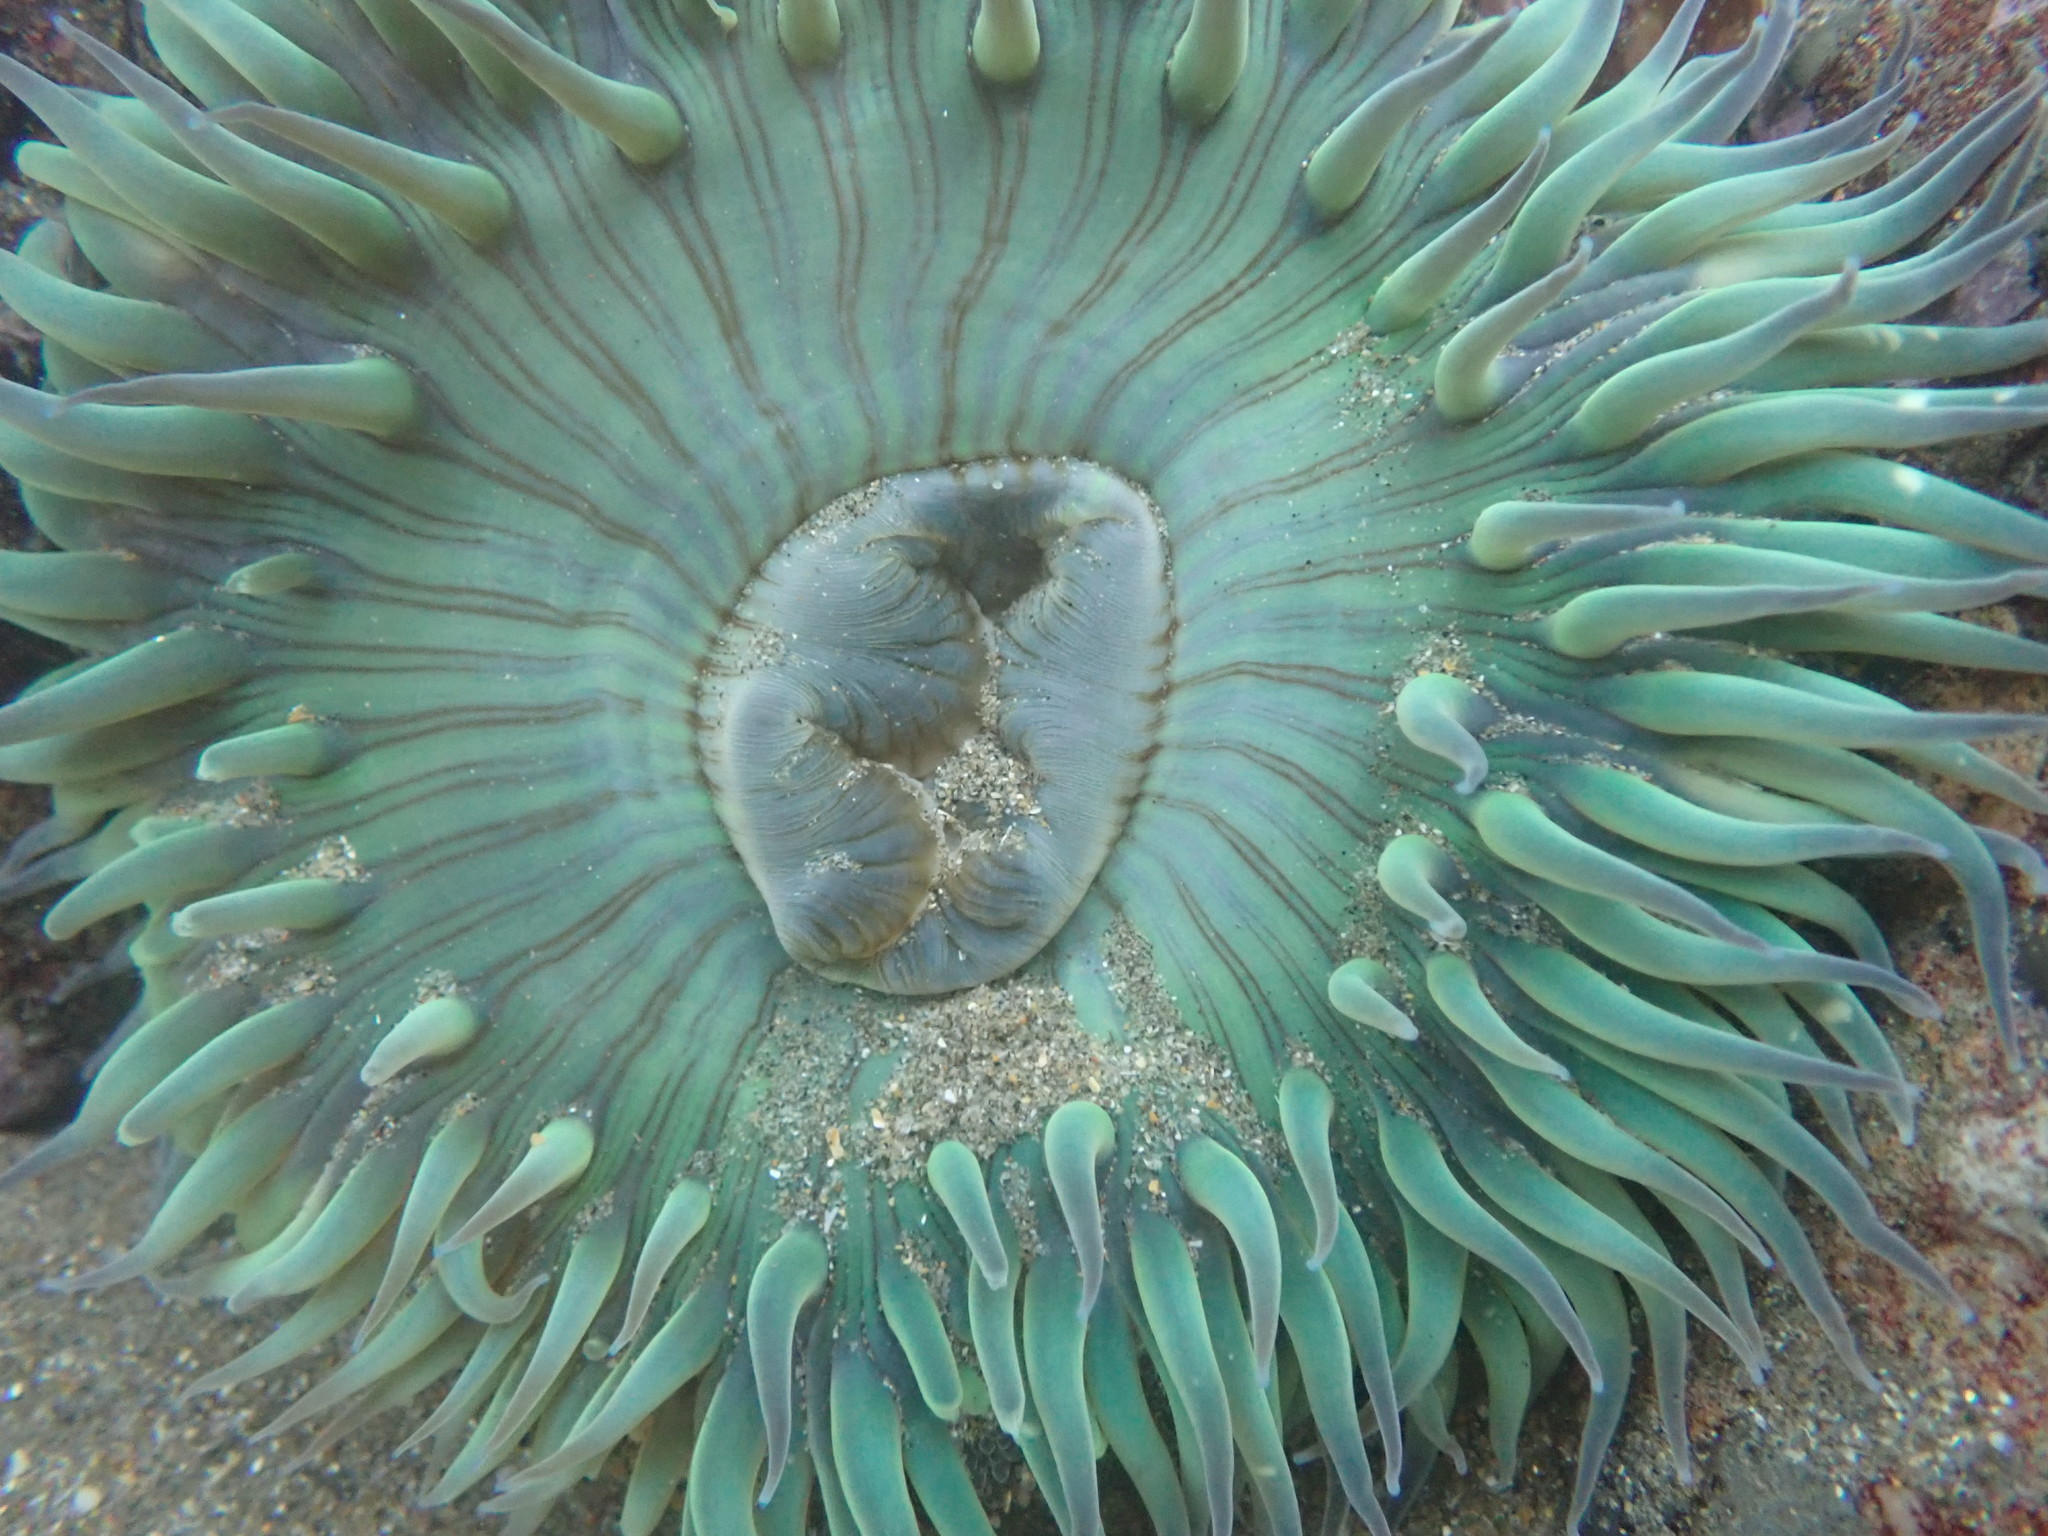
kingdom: Animalia
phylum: Cnidaria
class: Anthozoa
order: Actiniaria
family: Actiniidae
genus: Anthopleura
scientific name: Anthopleura sola
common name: Sun anemone
